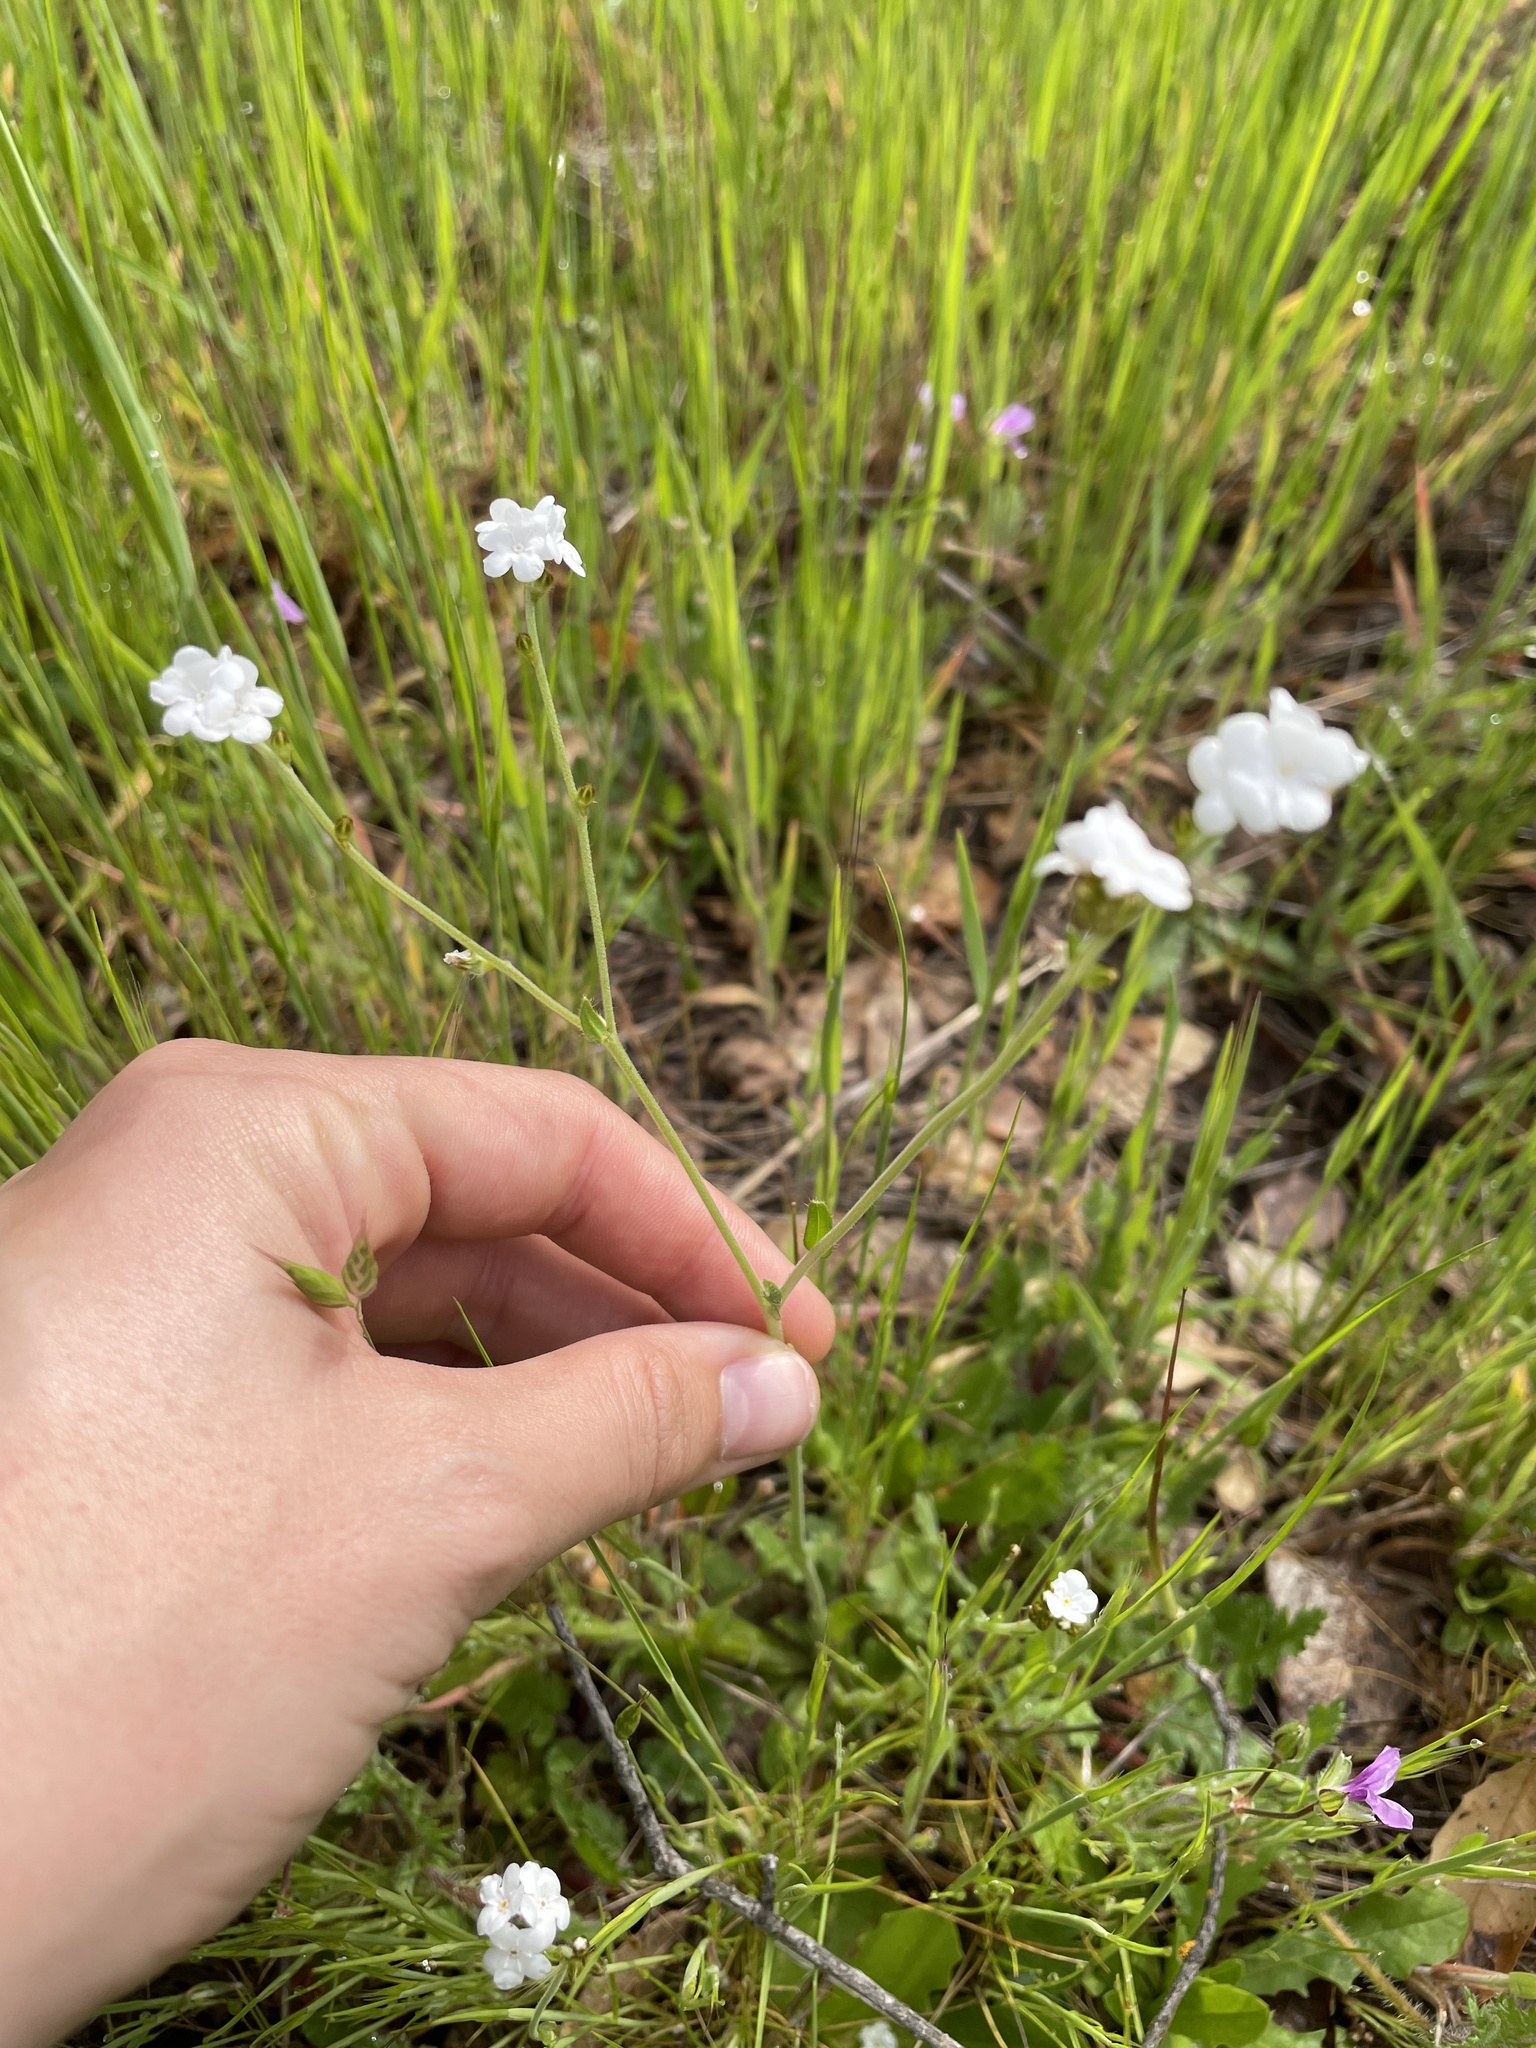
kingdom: Plantae
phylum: Tracheophyta
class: Magnoliopsida
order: Boraginales
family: Boraginaceae
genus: Plagiobothrys
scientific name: Plagiobothrys nothofulvus
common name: Popcorn-flower
